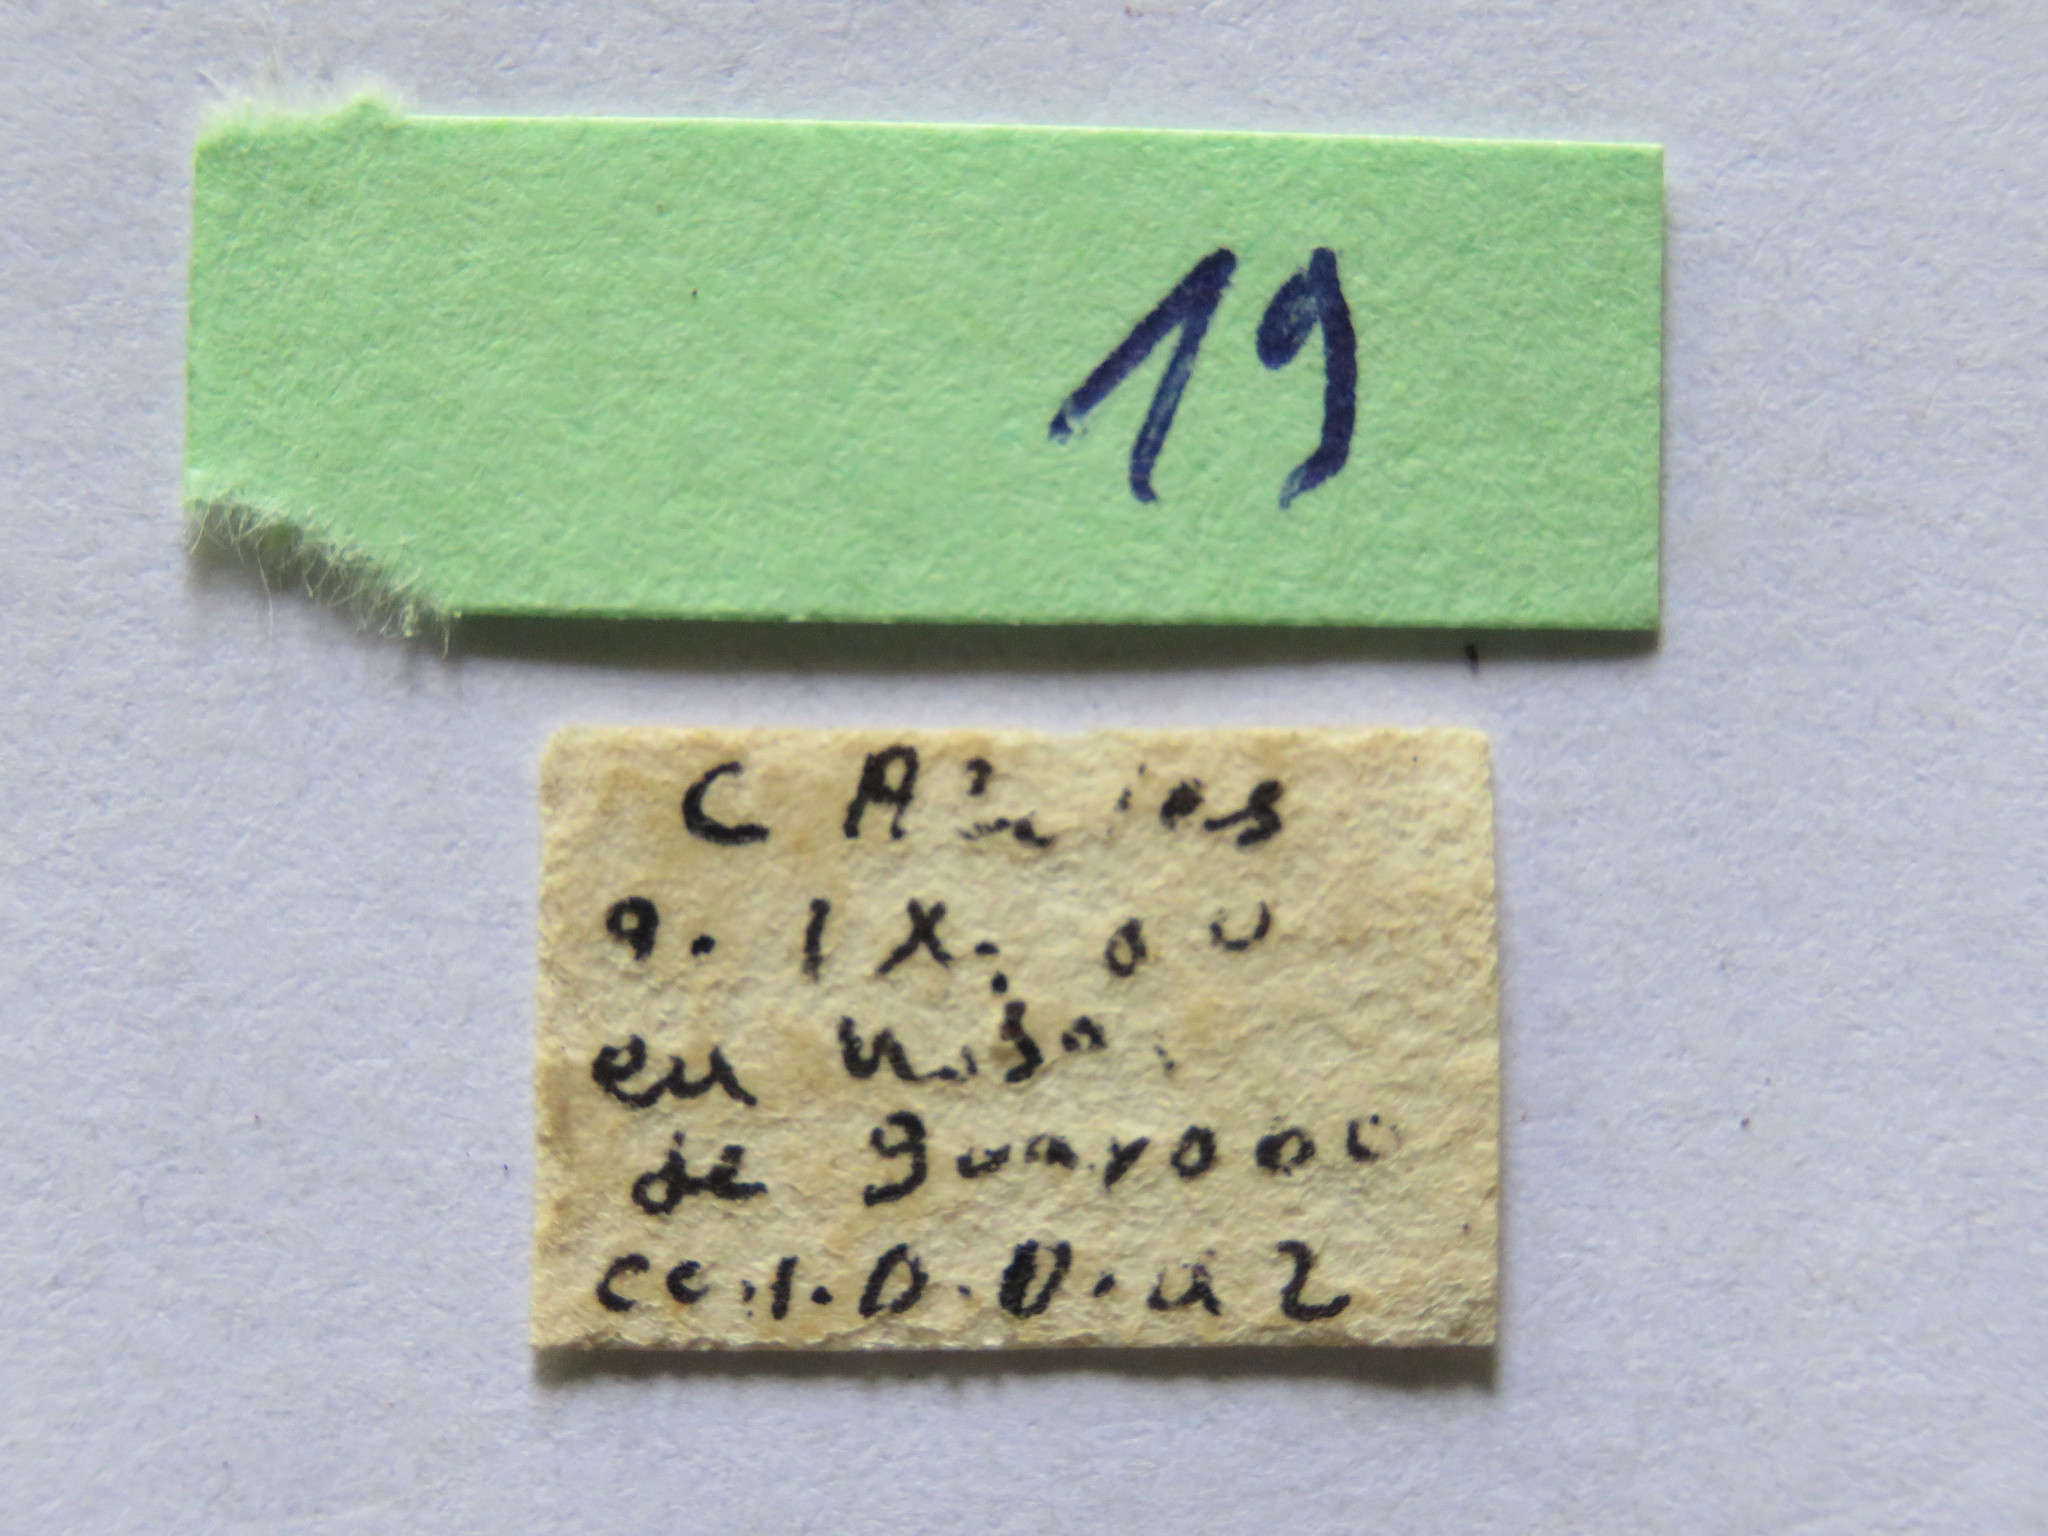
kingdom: Animalia
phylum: Arthropoda
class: Insecta
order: Hemiptera
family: Coreidae
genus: Leptoglossus
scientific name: Leptoglossus concolor
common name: Leaf-footed bug
